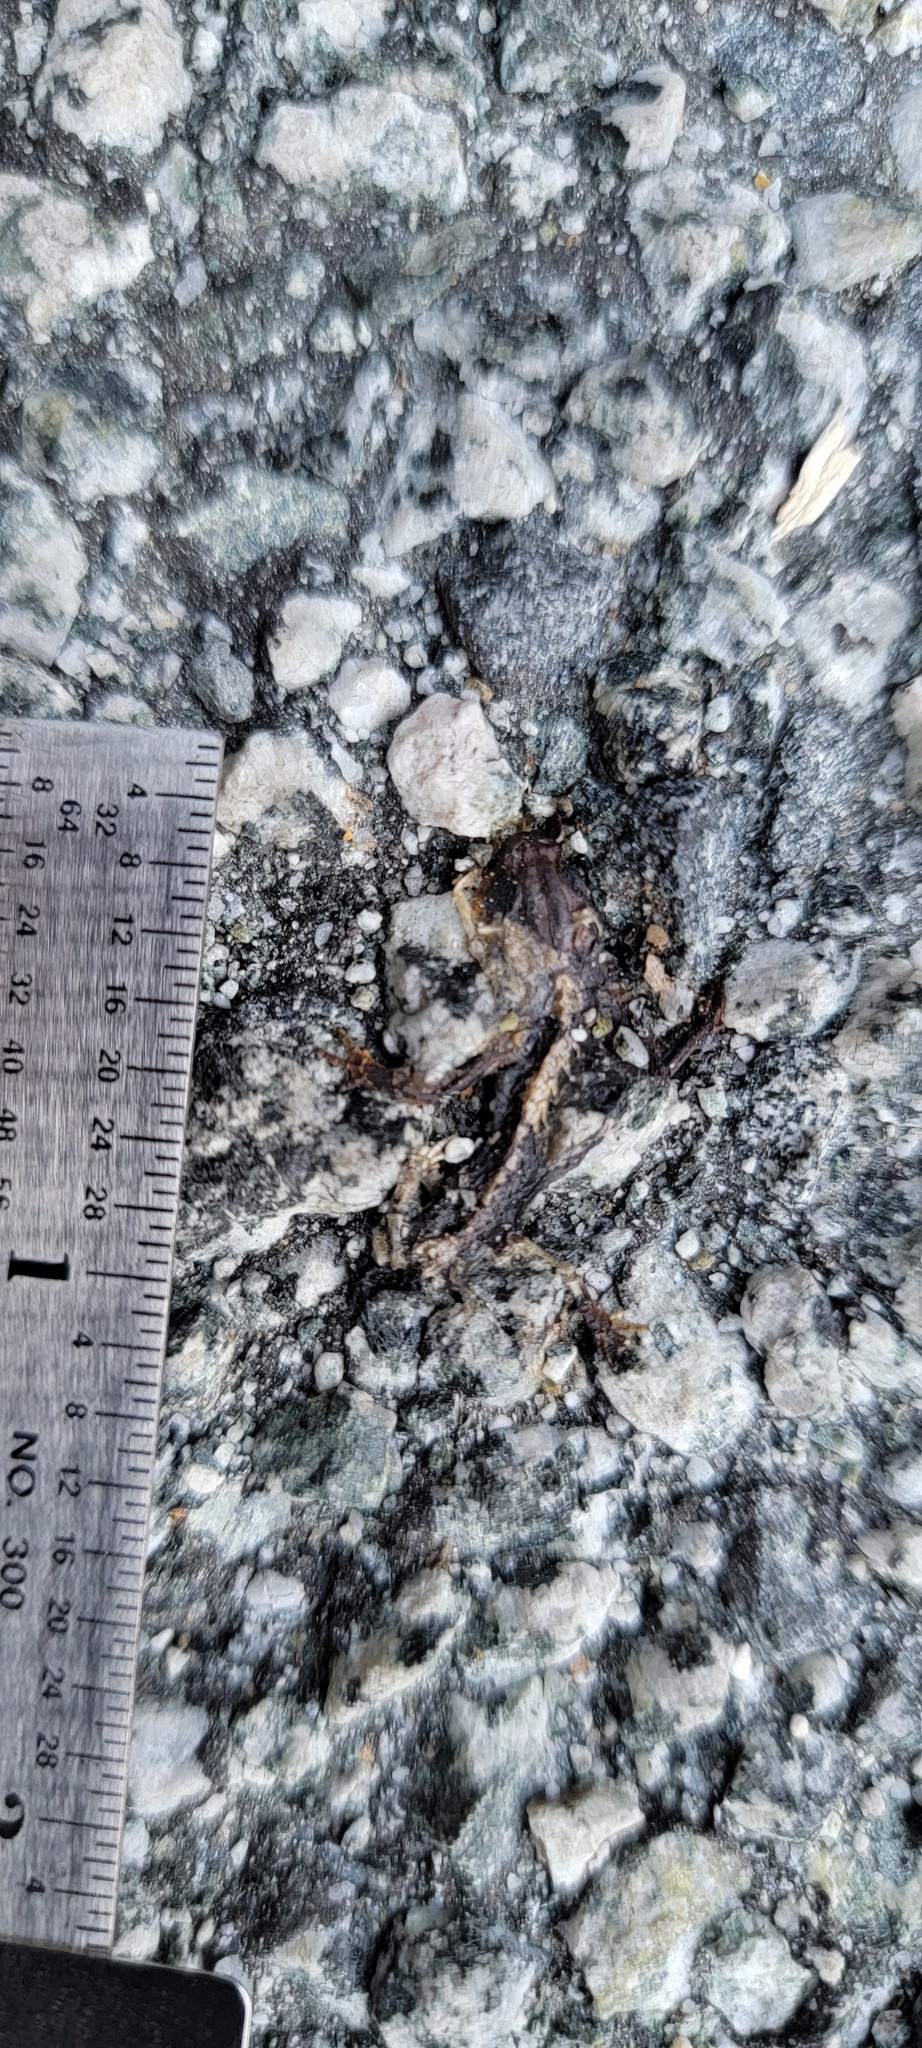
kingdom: Animalia
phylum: Chordata
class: Amphibia
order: Caudata
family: Salamandridae
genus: Taricha
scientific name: Taricha
